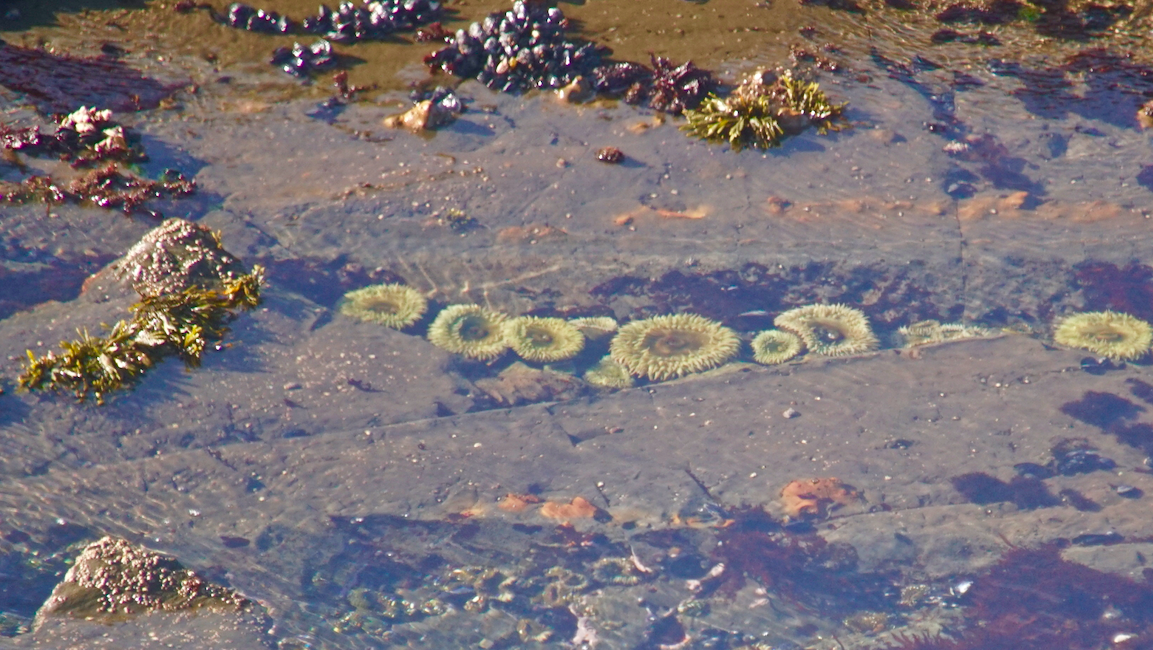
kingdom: Animalia
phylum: Cnidaria
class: Anthozoa
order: Actiniaria
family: Actiniidae
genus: Anthopleura
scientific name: Anthopleura xanthogrammica
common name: Giant green anemone
